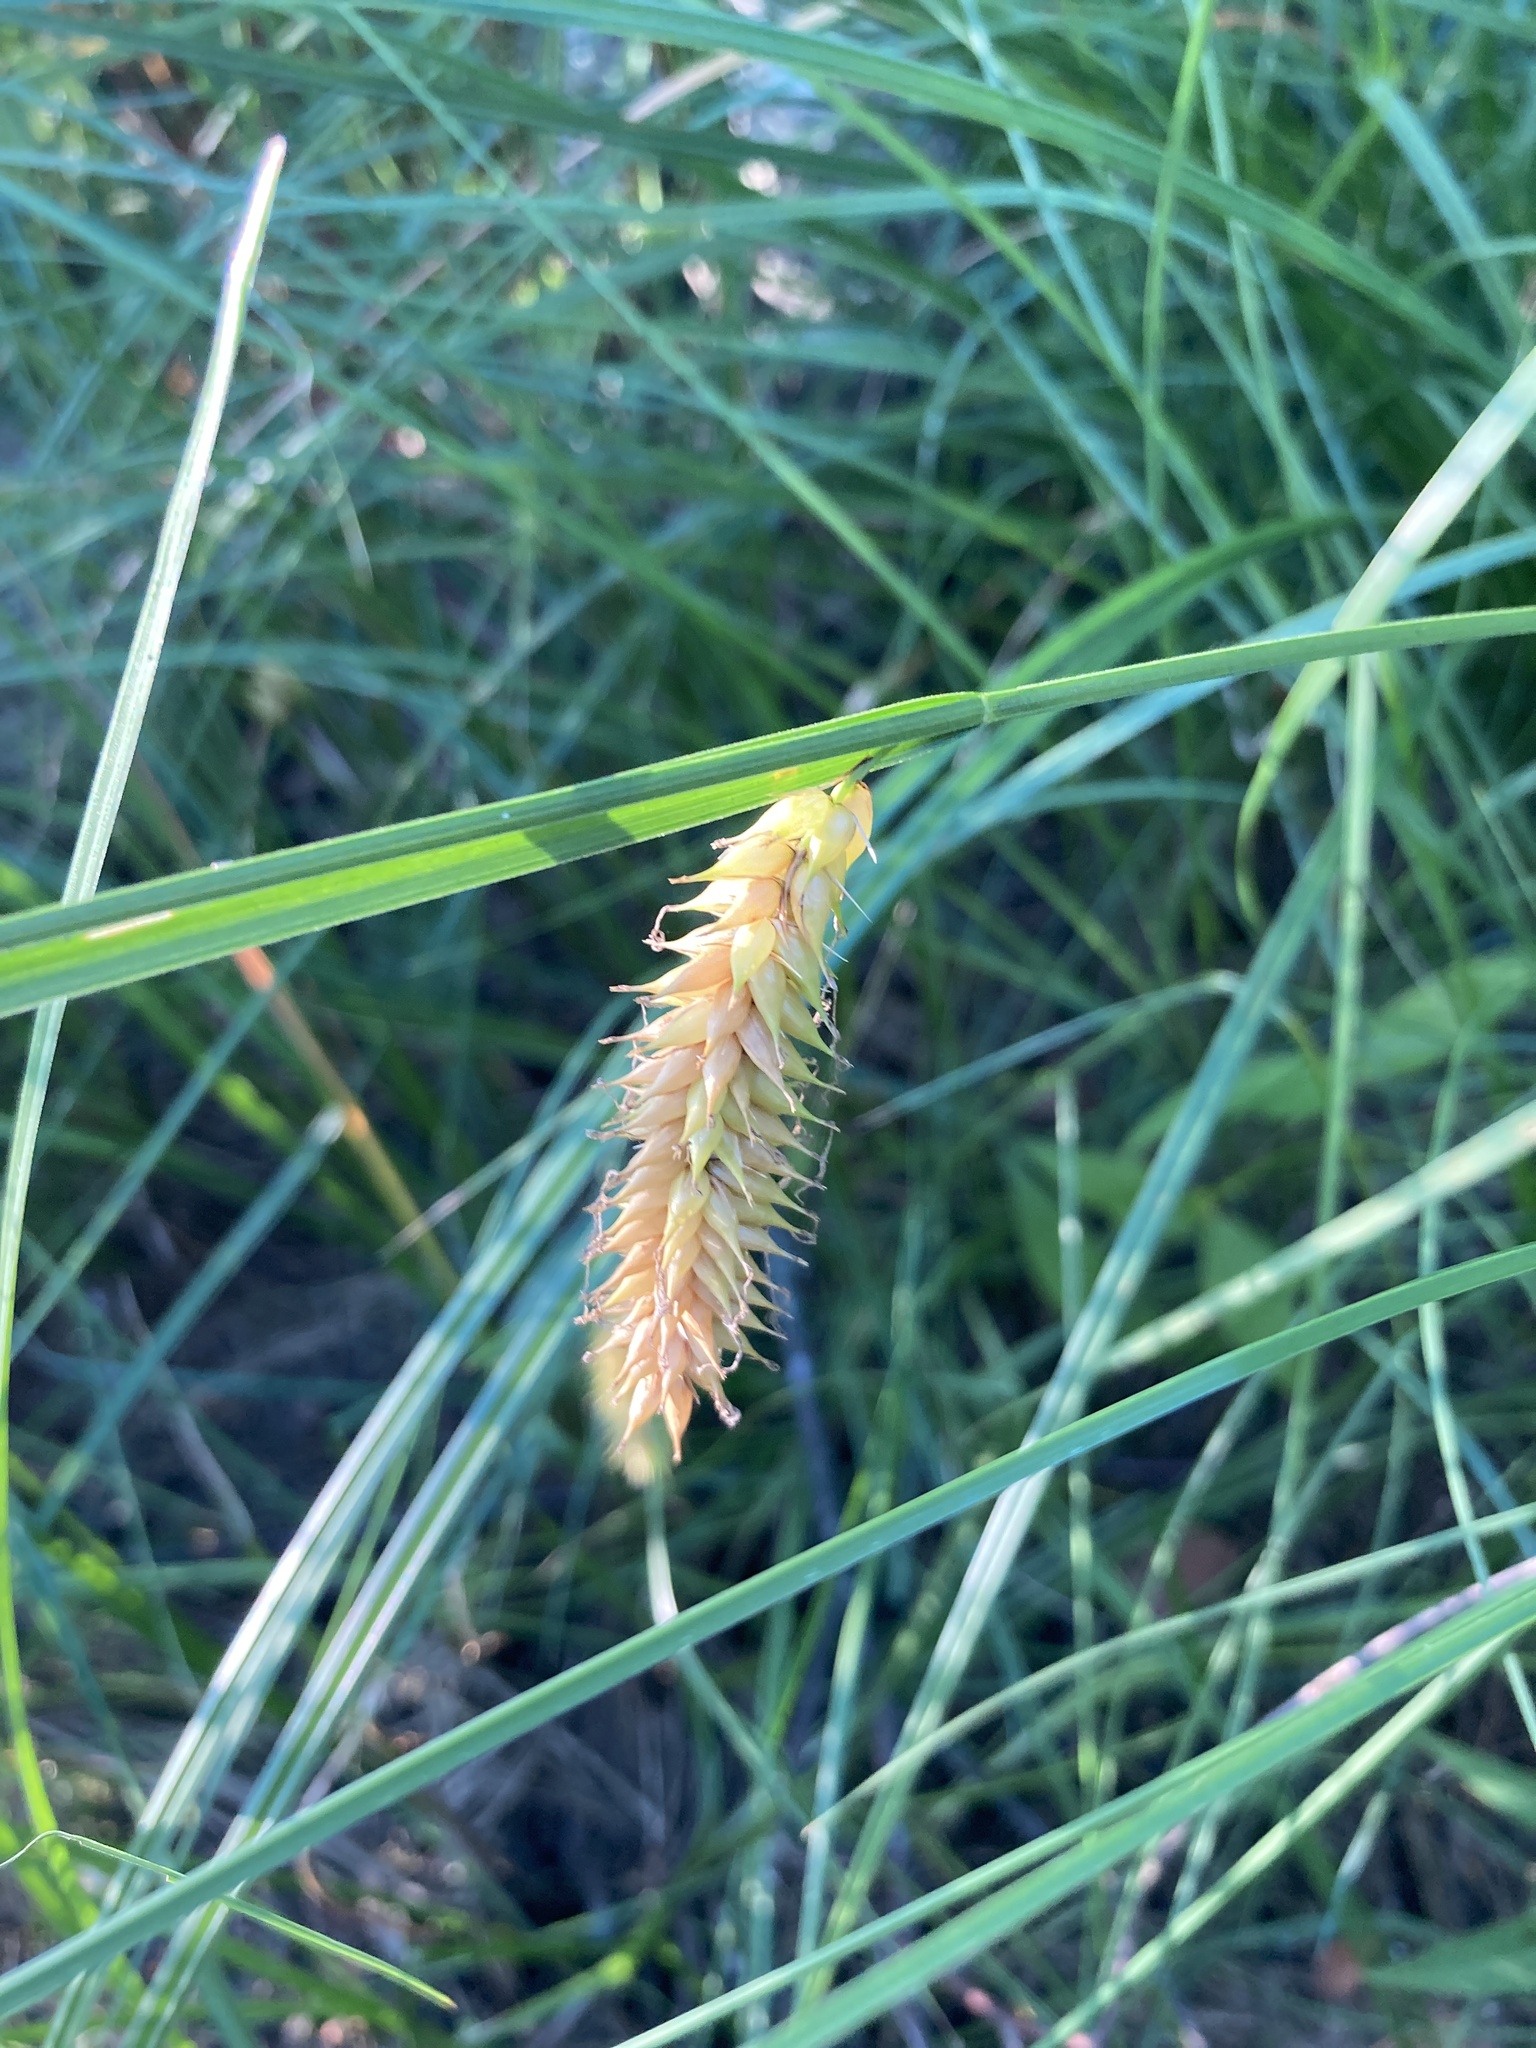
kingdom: Plantae
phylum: Tracheophyta
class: Liliopsida
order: Poales
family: Cyperaceae
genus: Carex
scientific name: Carex vesicaria
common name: Bladder-sedge
